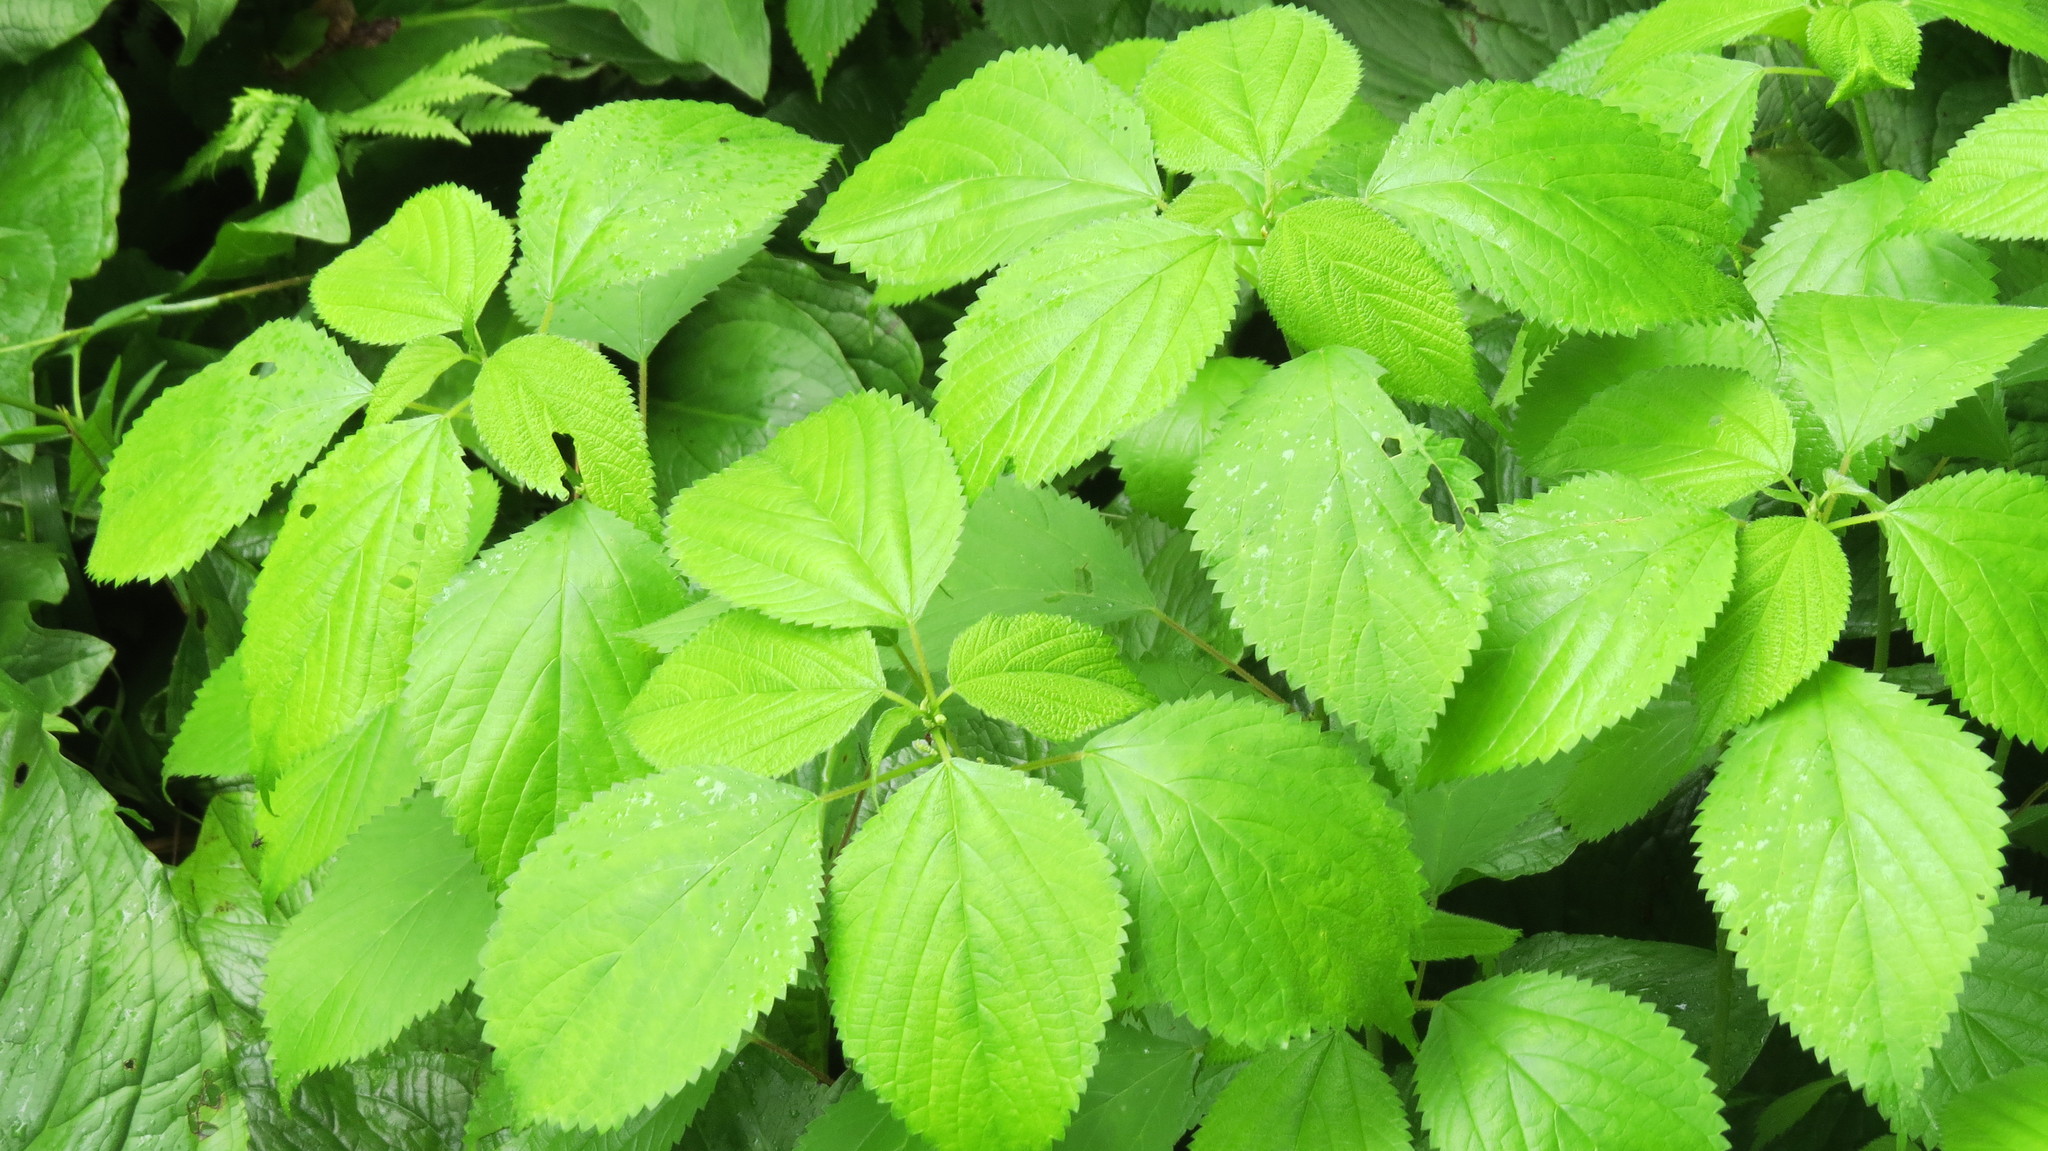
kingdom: Plantae
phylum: Tracheophyta
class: Magnoliopsida
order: Rosales
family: Urticaceae
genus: Laportea
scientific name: Laportea canadensis
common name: Canada nettle
